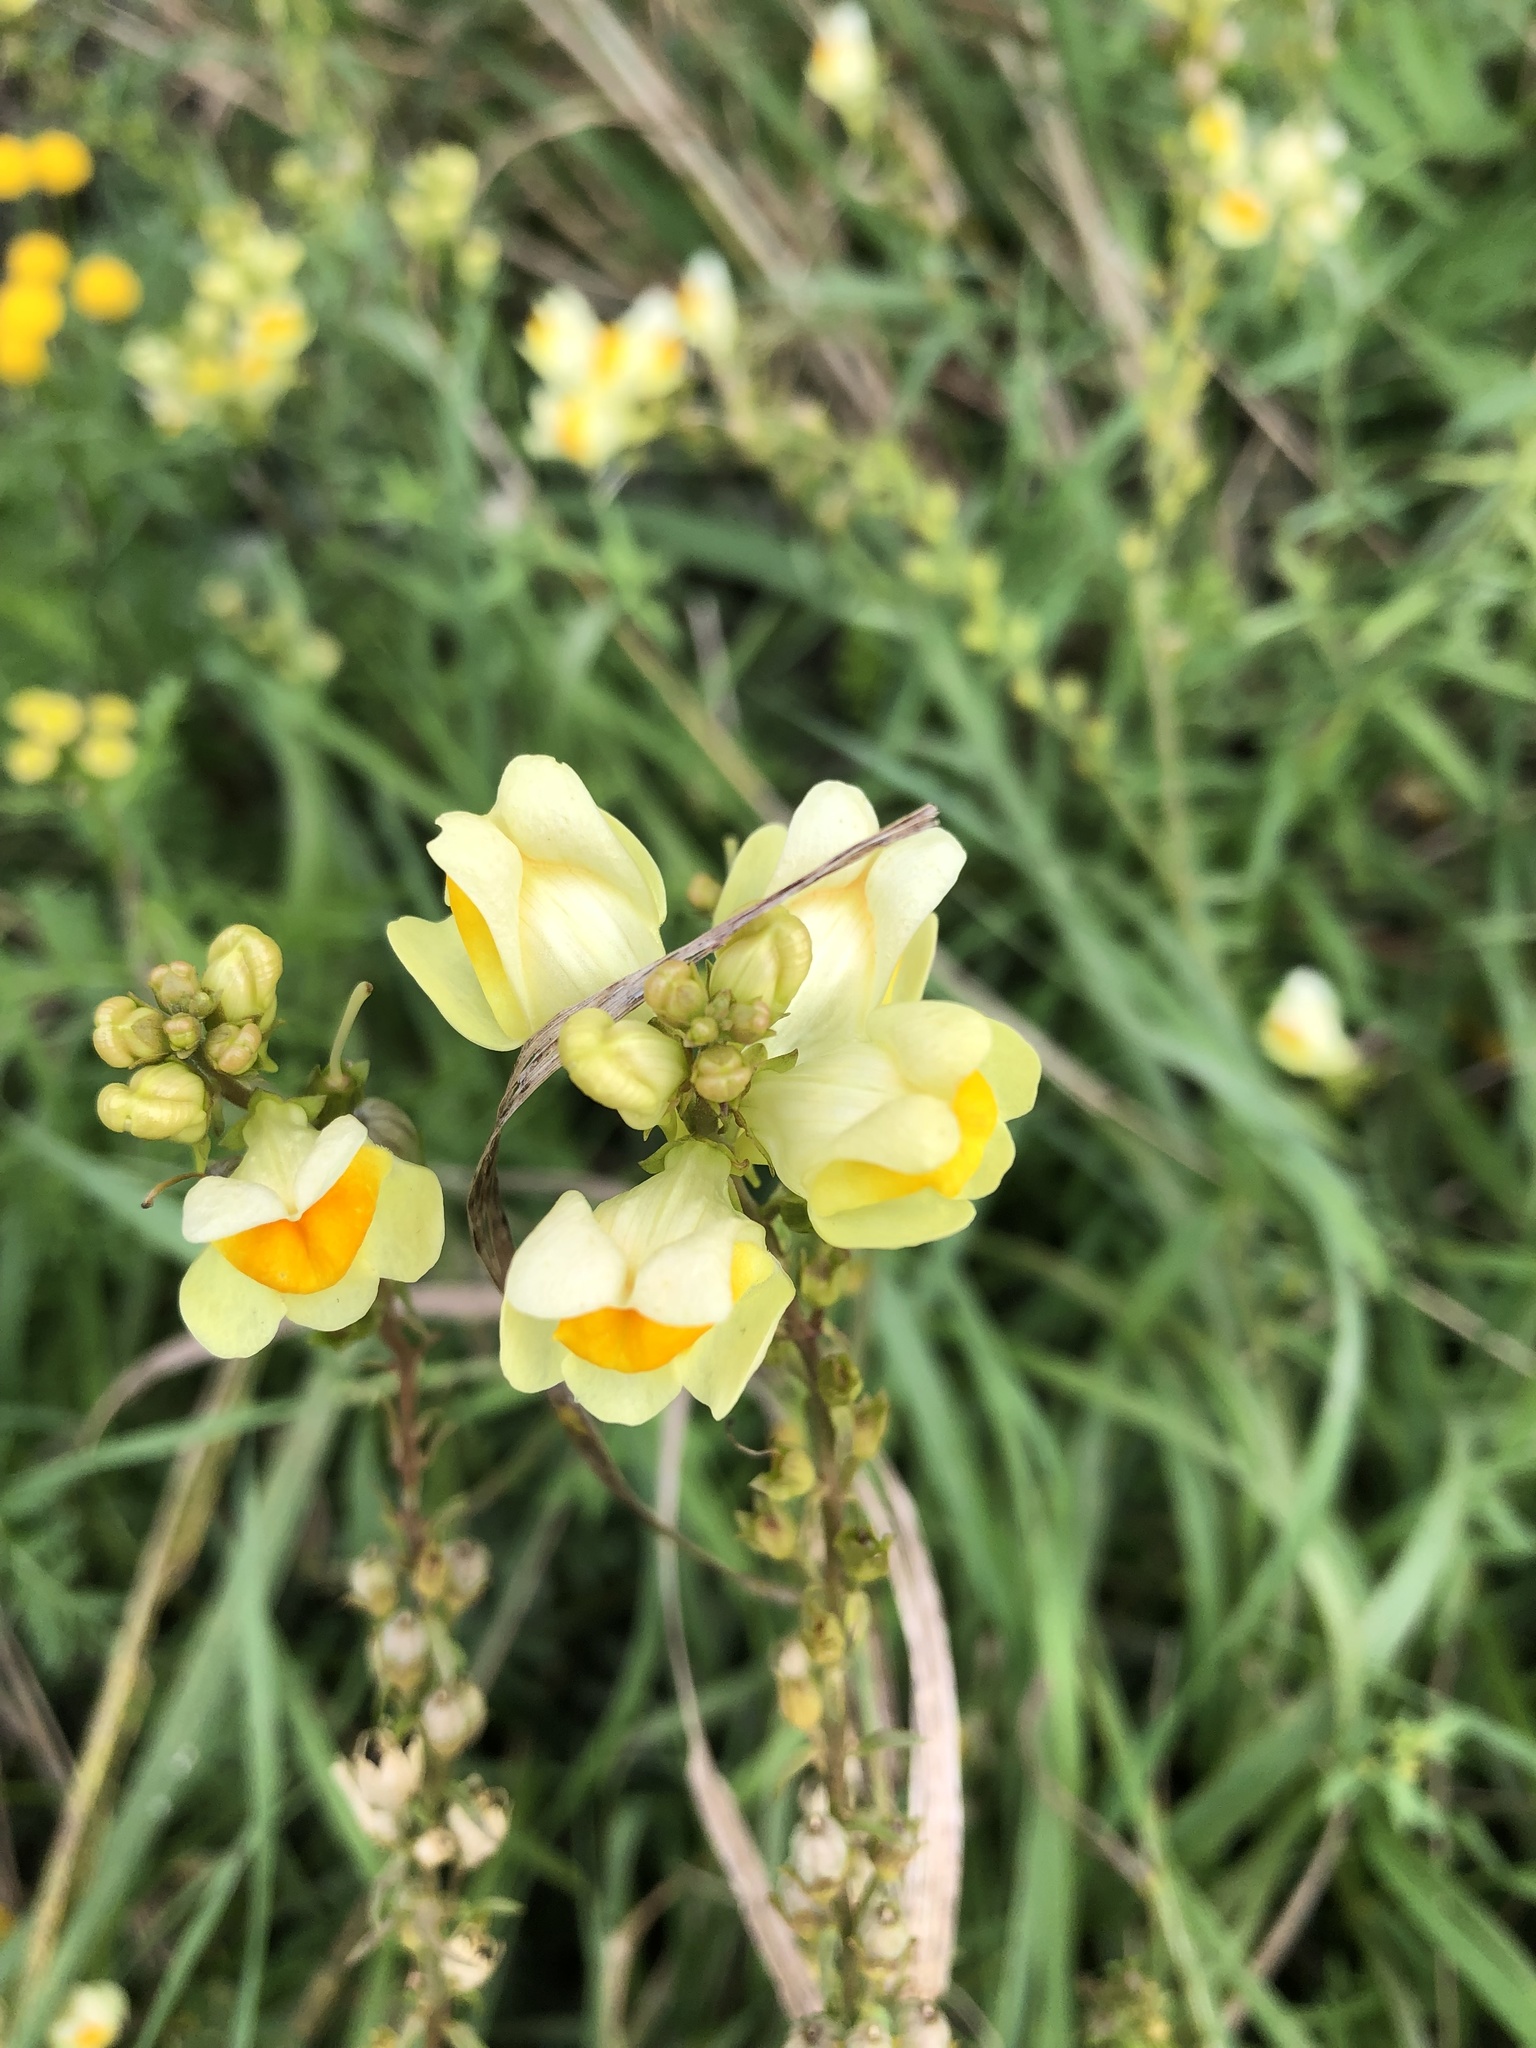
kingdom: Plantae
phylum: Tracheophyta
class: Magnoliopsida
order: Lamiales
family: Plantaginaceae
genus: Linaria
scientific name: Linaria vulgaris
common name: Butter and eggs
